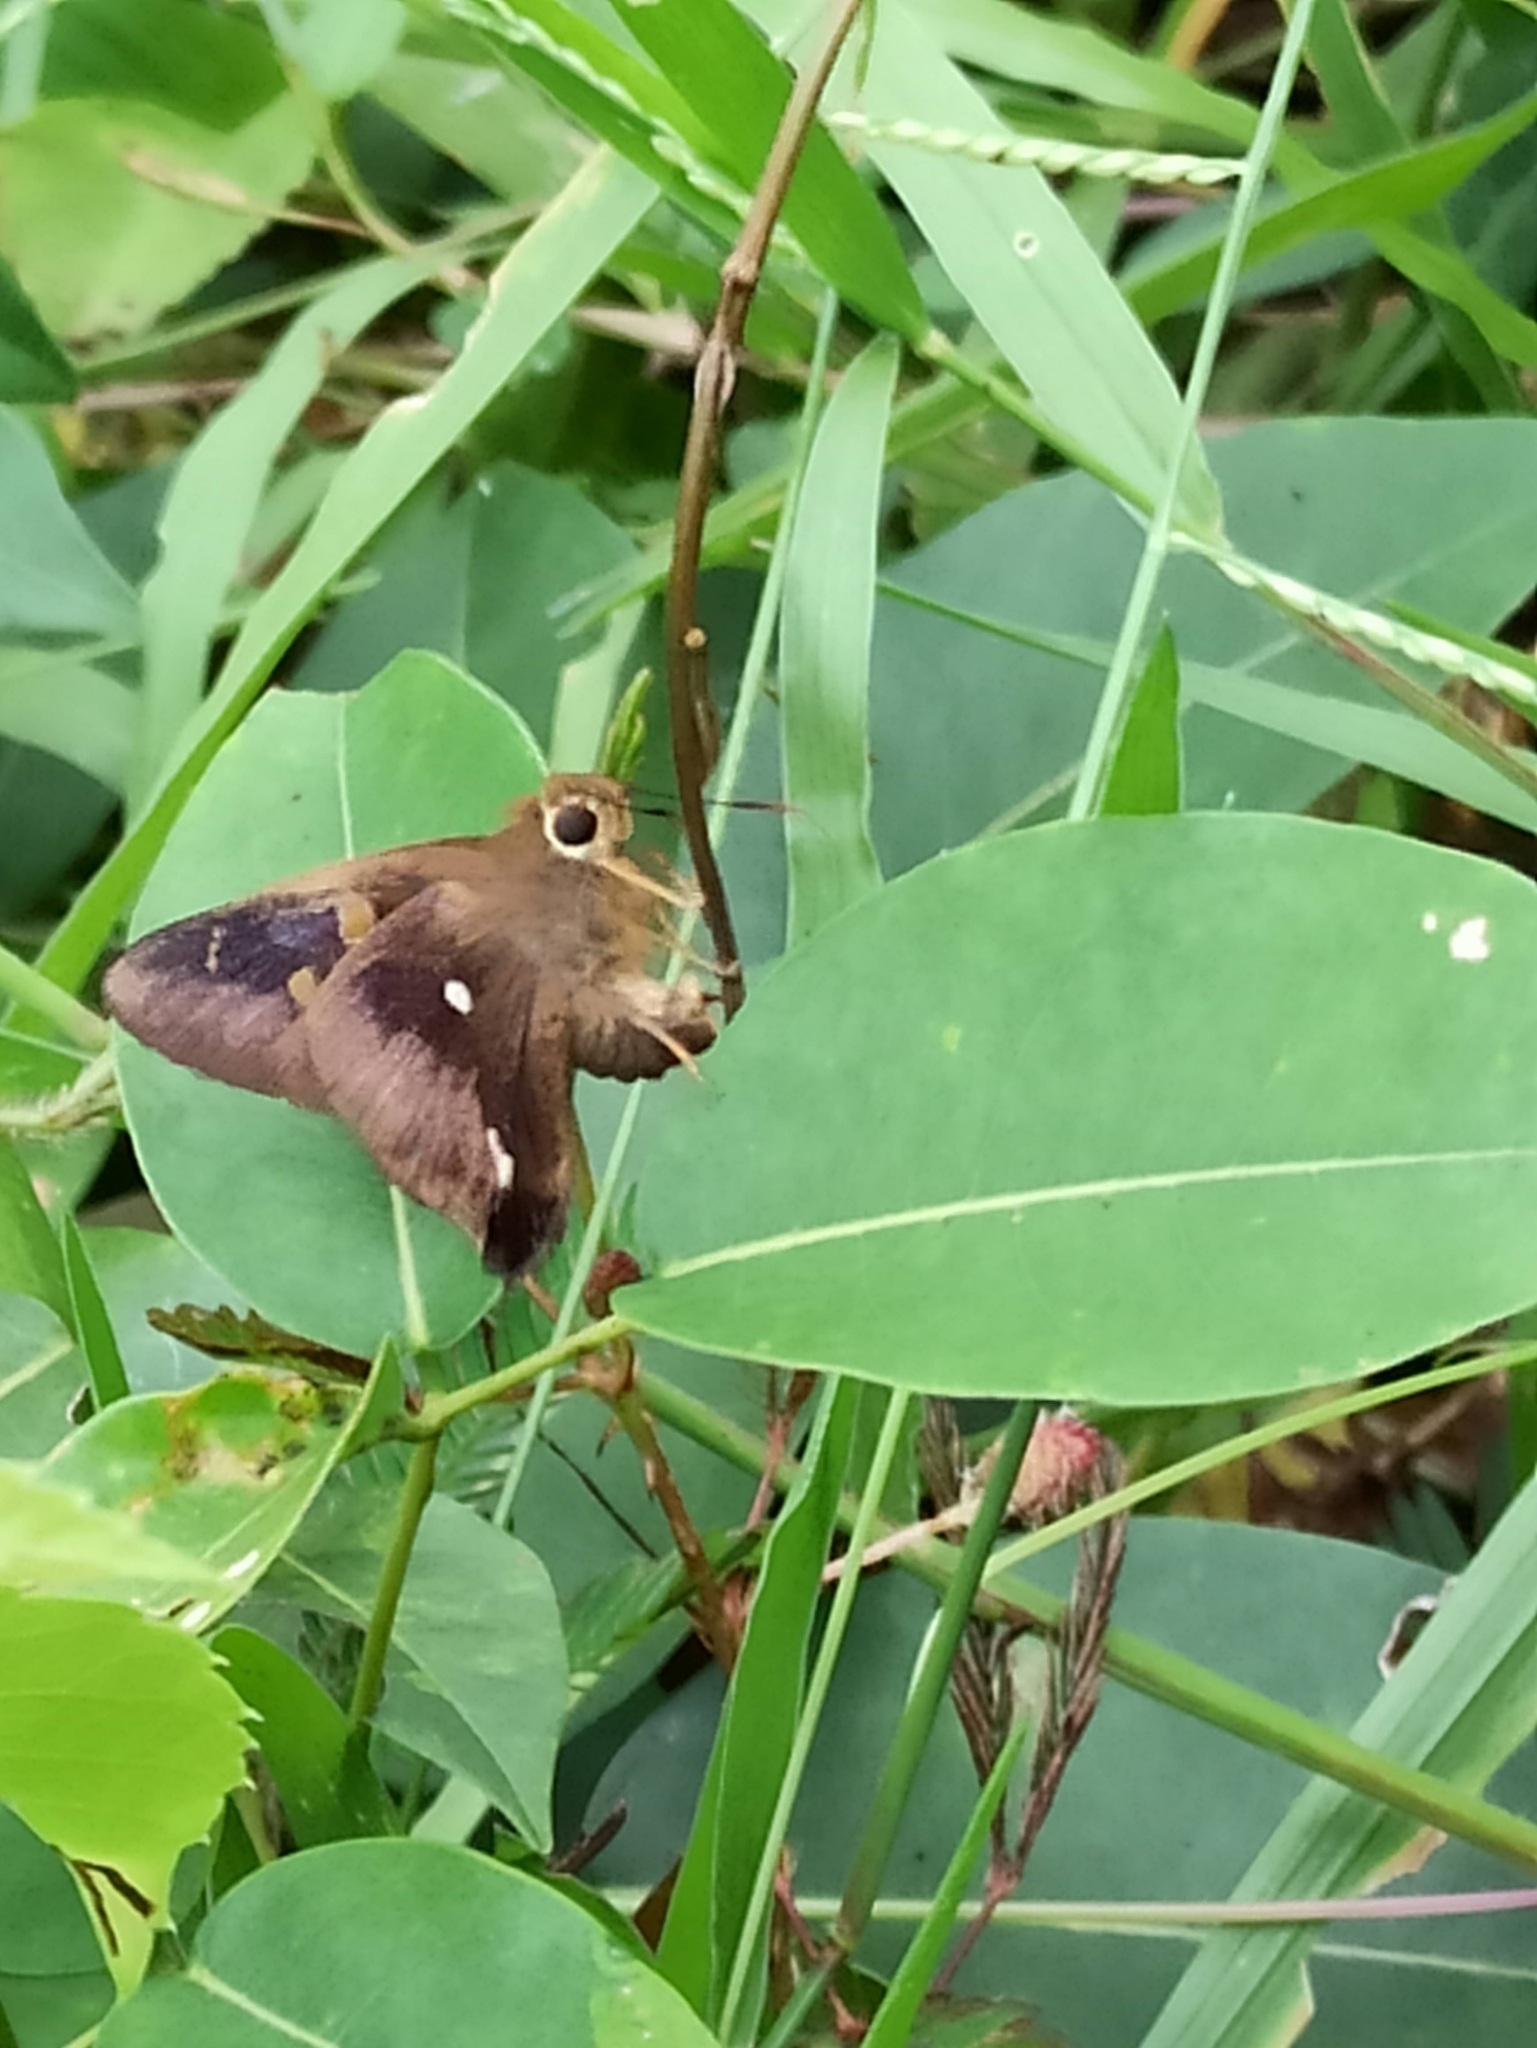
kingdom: Animalia
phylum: Arthropoda
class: Insecta
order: Lepidoptera
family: Hesperiidae
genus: Hasora
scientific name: Hasora badra
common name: Common awl
